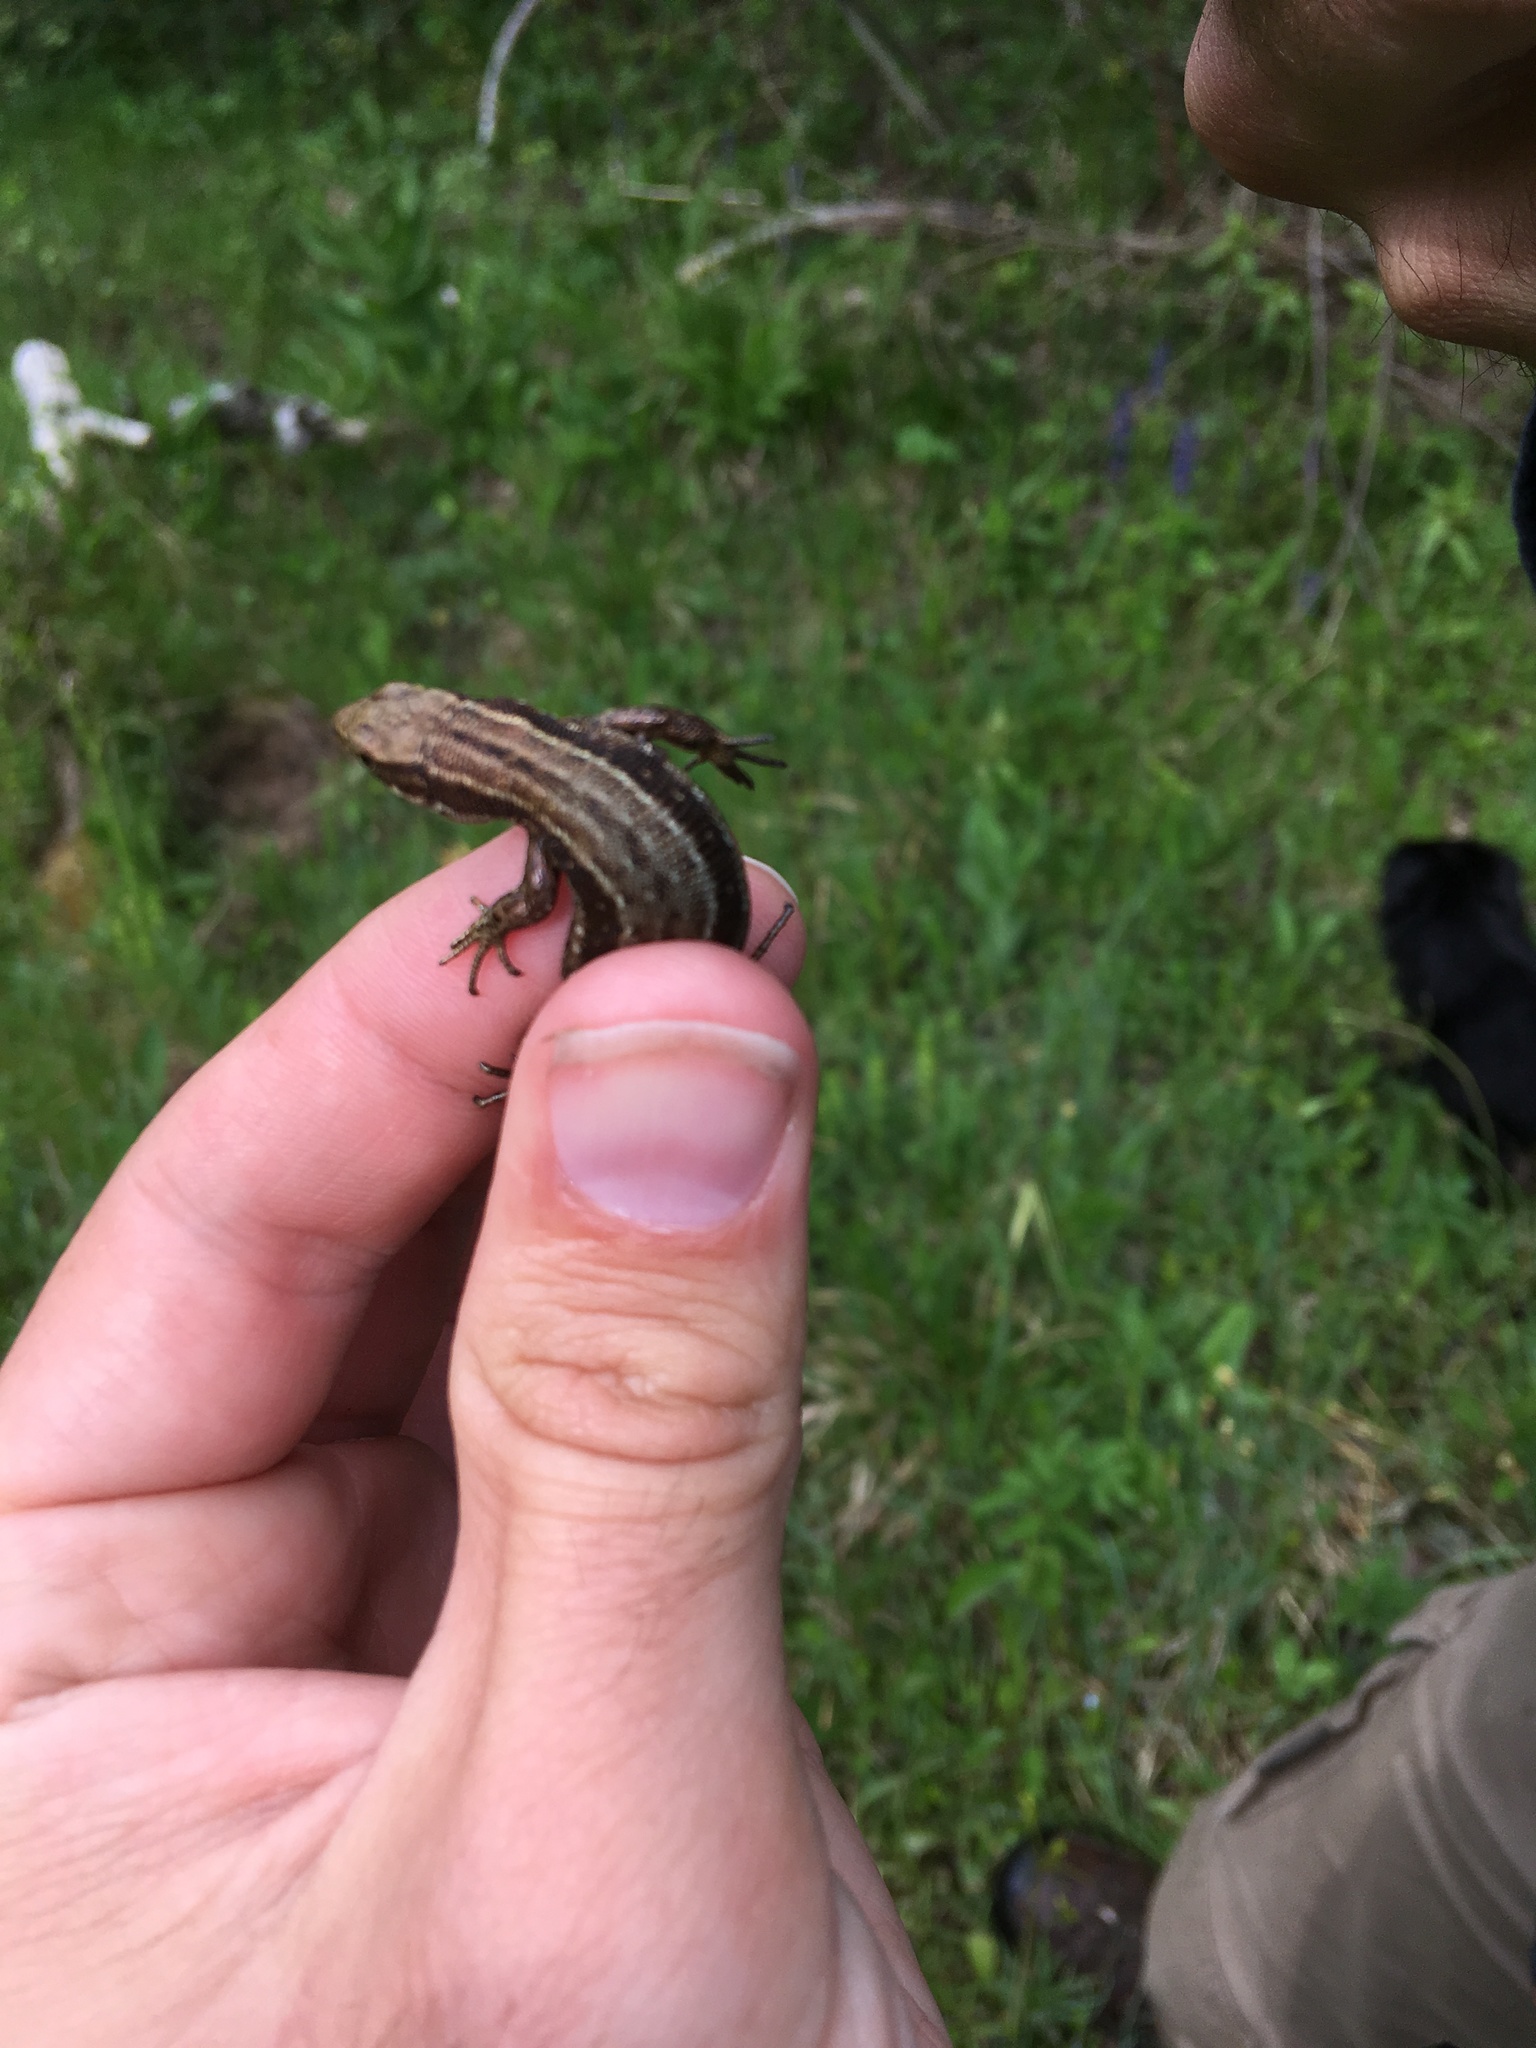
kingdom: Animalia
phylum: Chordata
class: Squamata
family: Lacertidae
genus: Zootoca
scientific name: Zootoca vivipara
